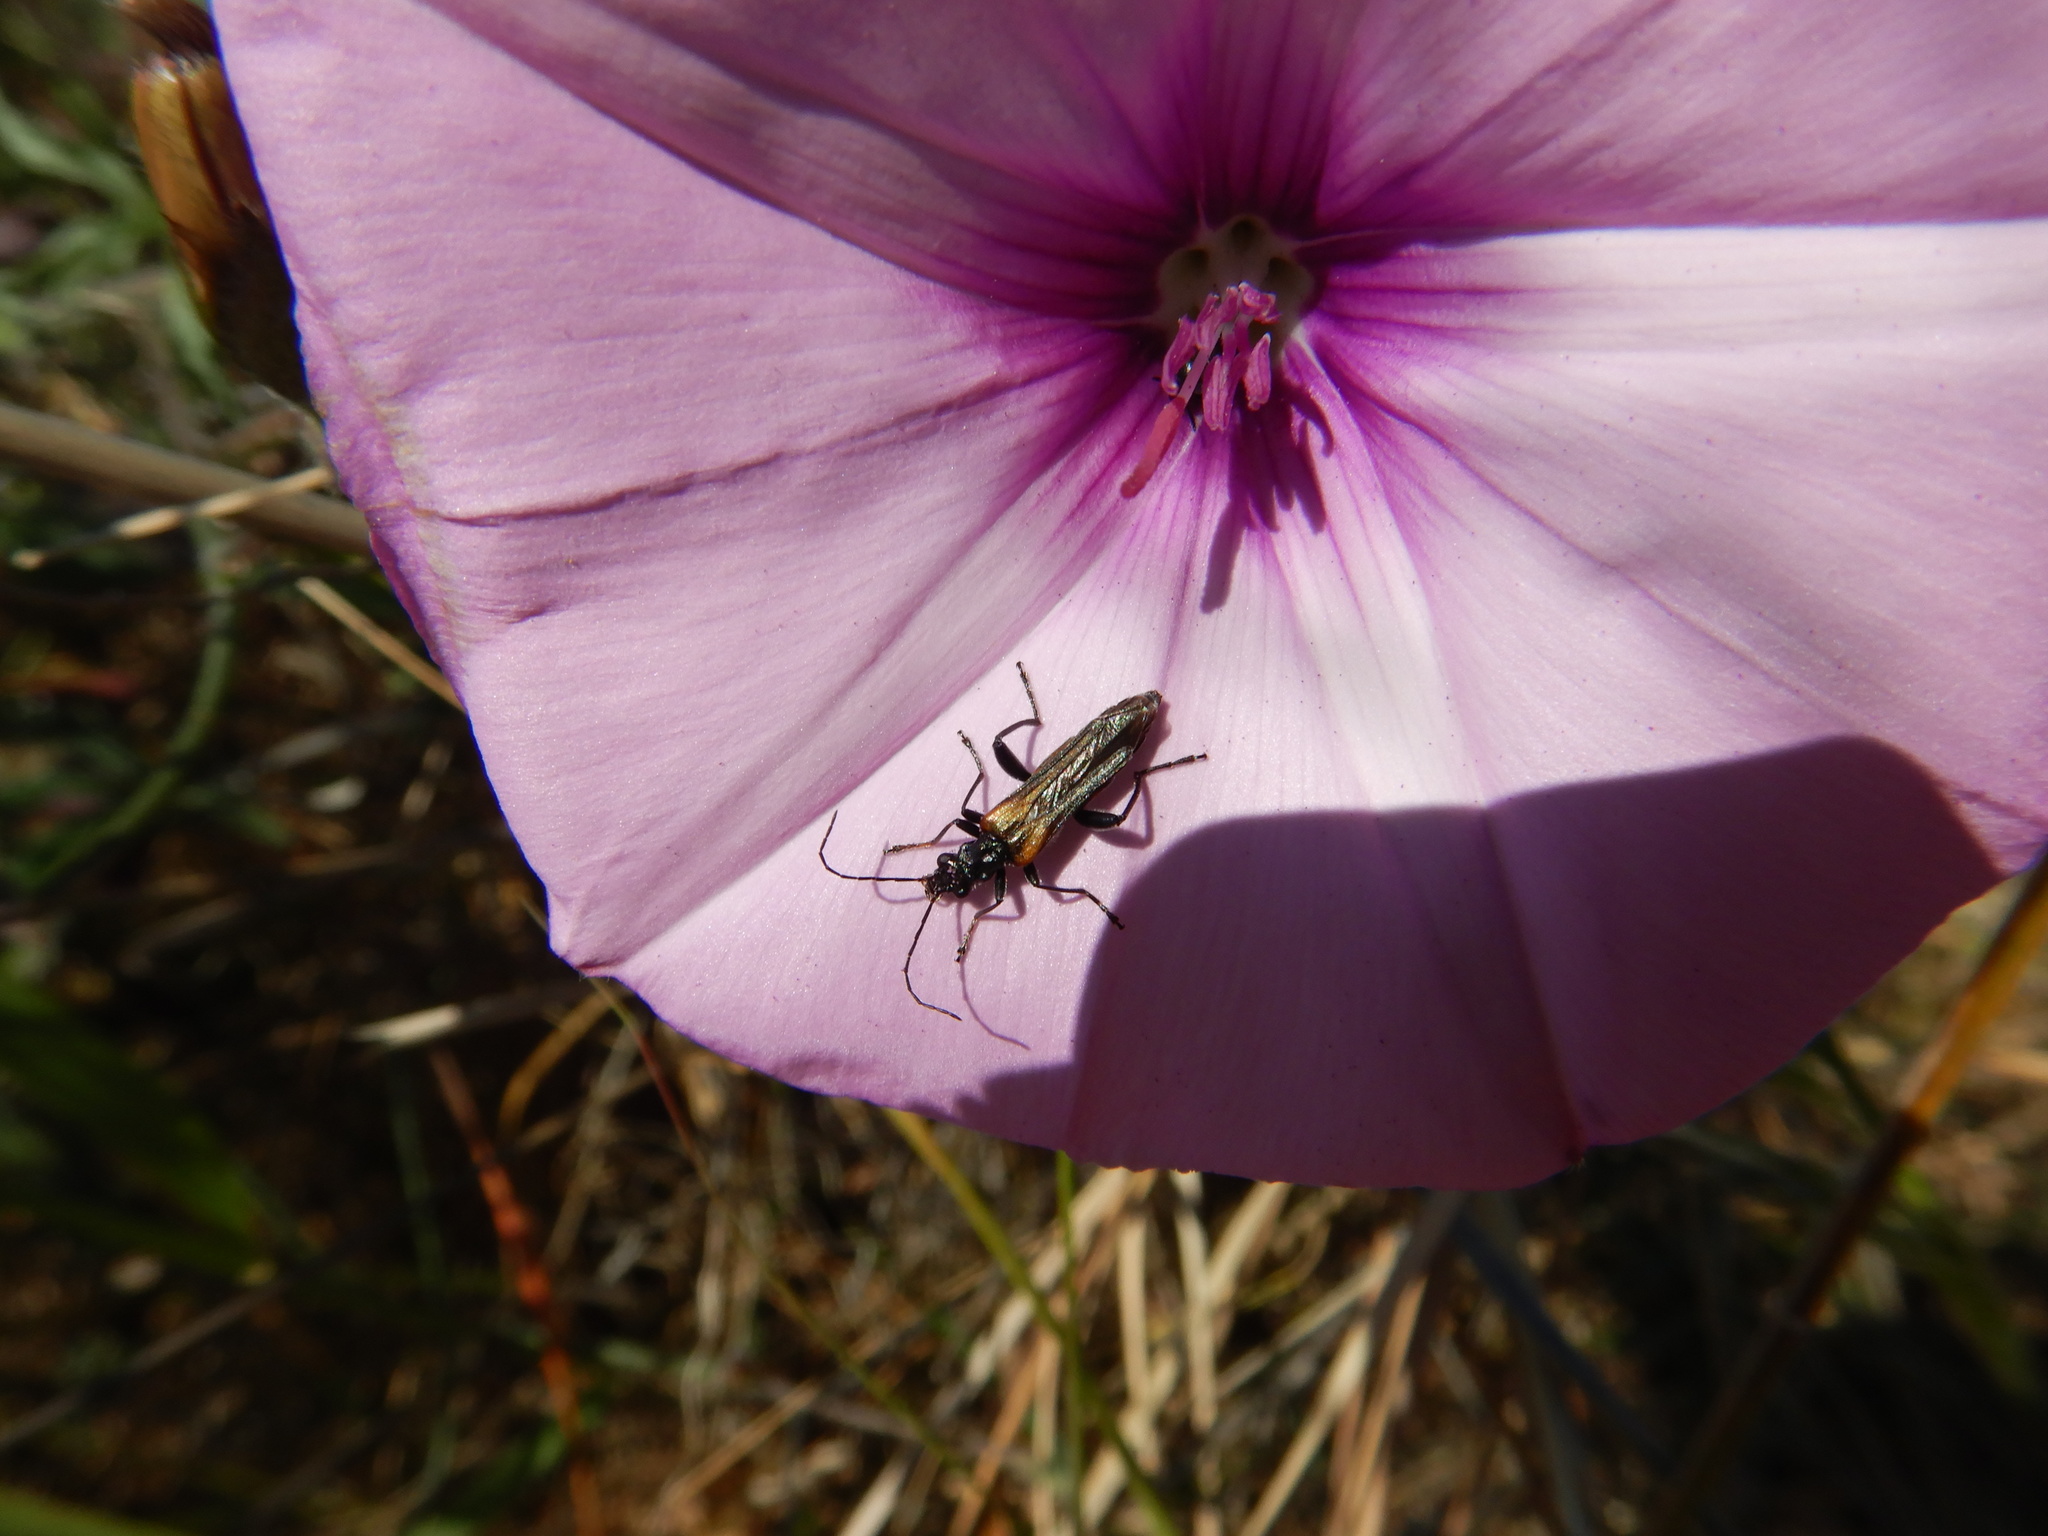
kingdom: Animalia
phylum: Arthropoda
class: Insecta
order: Coleoptera
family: Oedemeridae
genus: Oedemera
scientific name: Oedemera simplex
